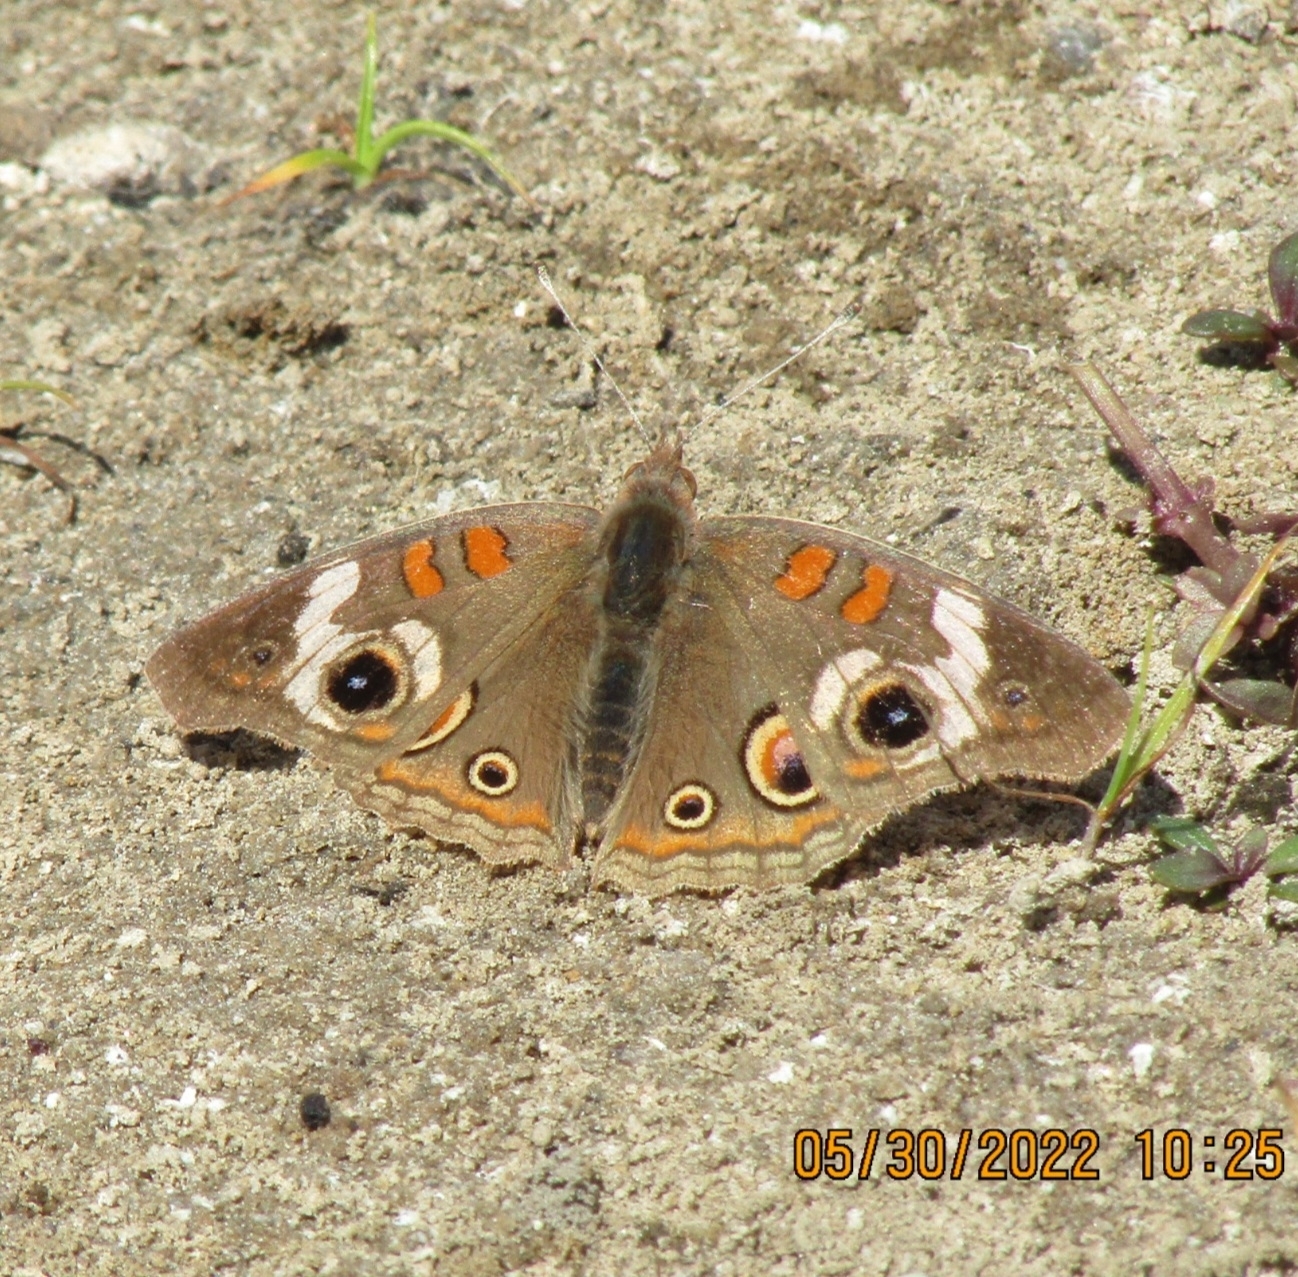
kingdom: Animalia
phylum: Arthropoda
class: Insecta
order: Lepidoptera
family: Nymphalidae
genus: Junonia
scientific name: Junonia grisea
